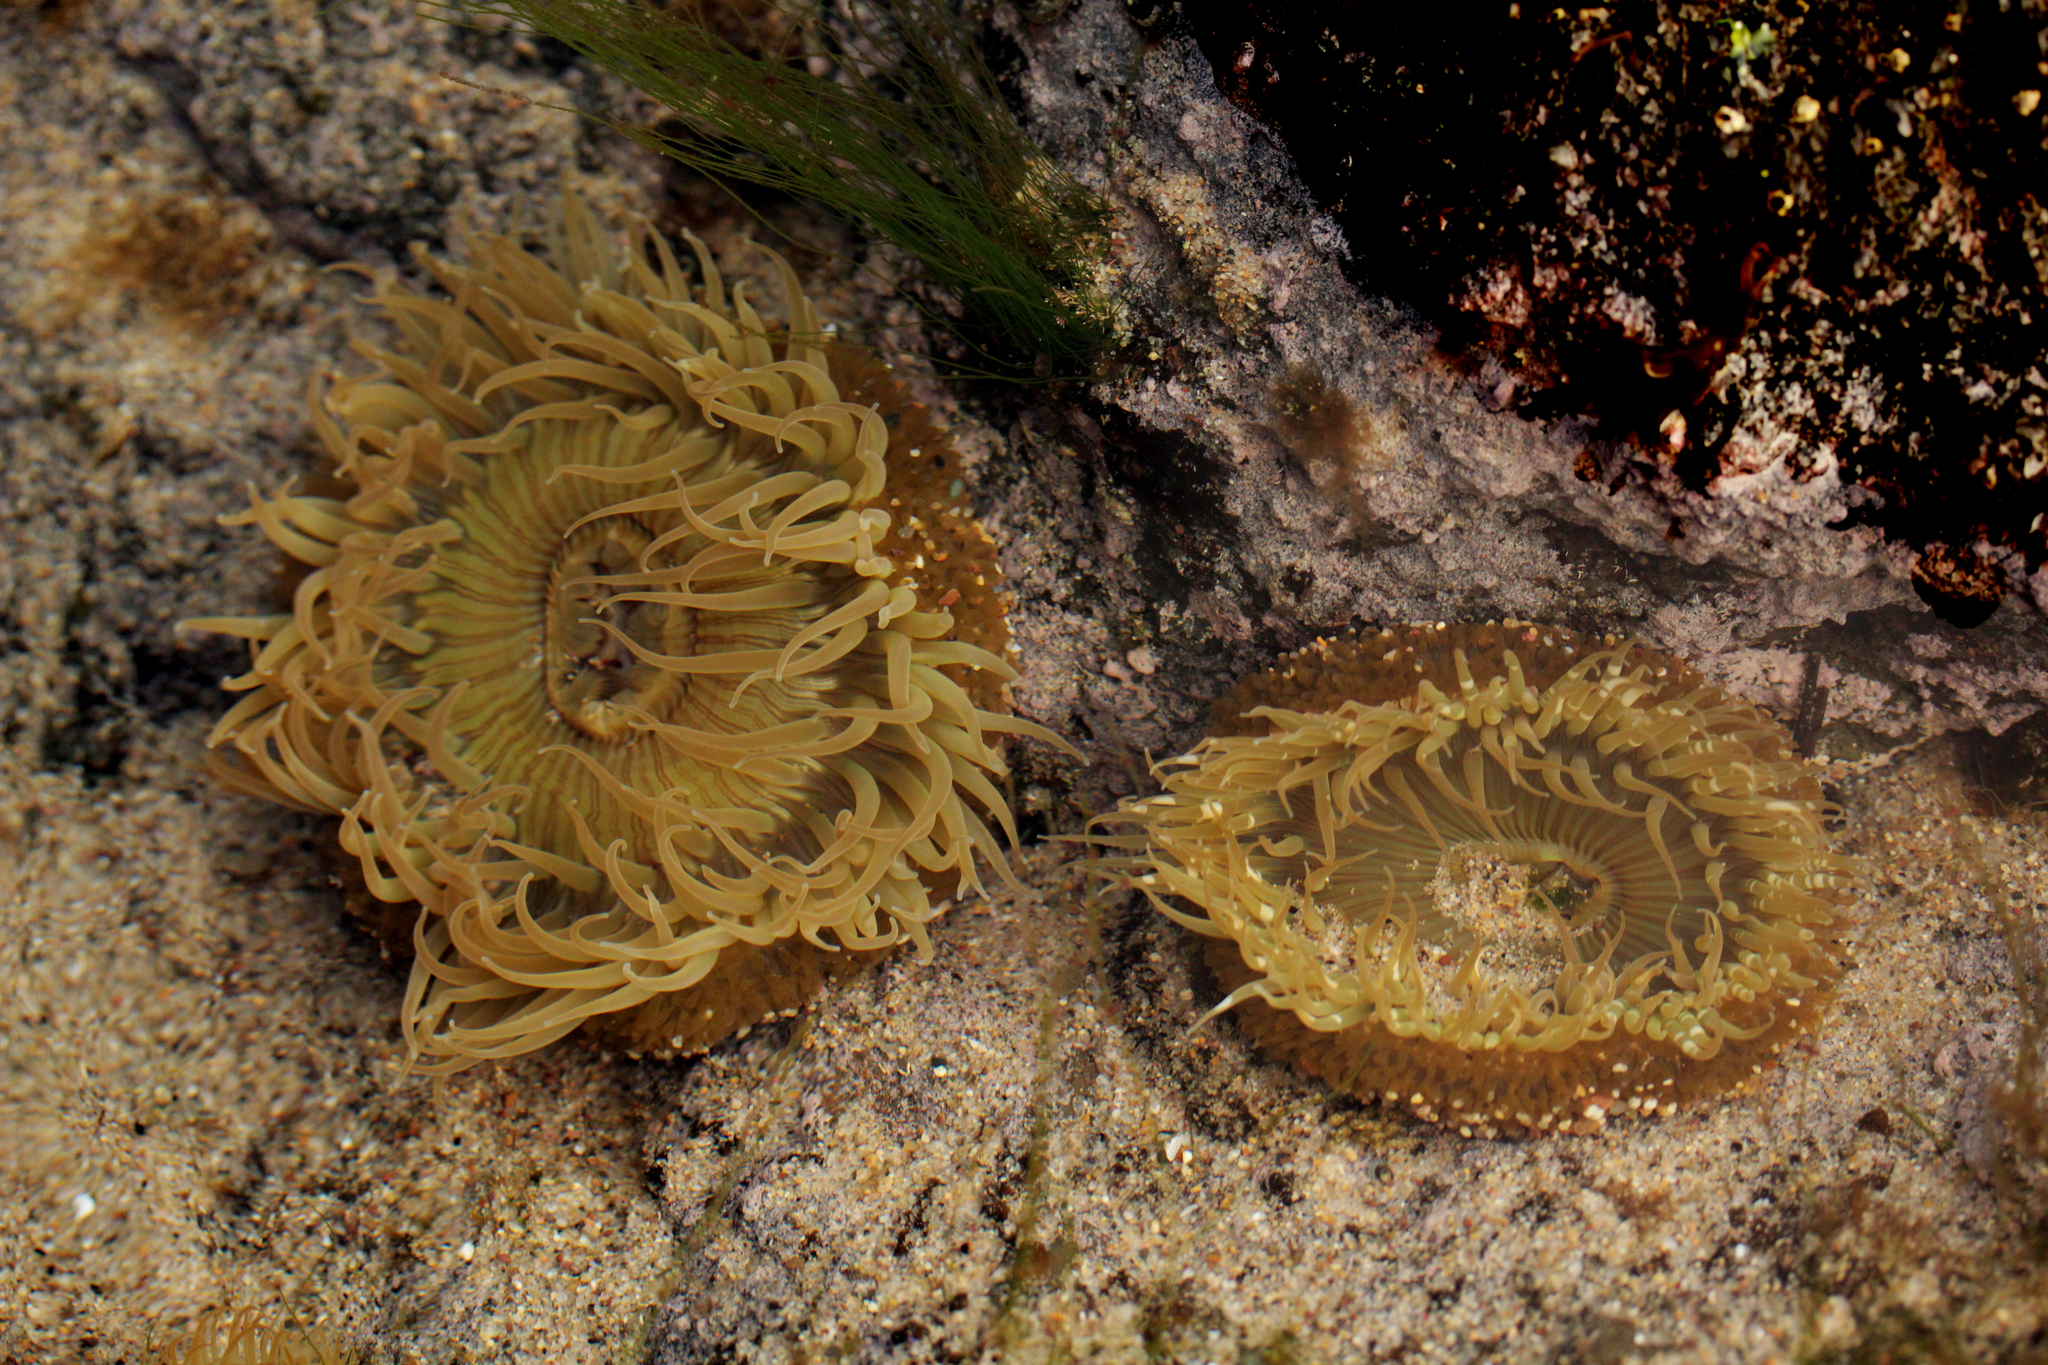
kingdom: Animalia
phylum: Cnidaria
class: Anthozoa
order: Actiniaria
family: Actiniidae
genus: Anthopleura
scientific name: Anthopleura sola
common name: Sun anemone
